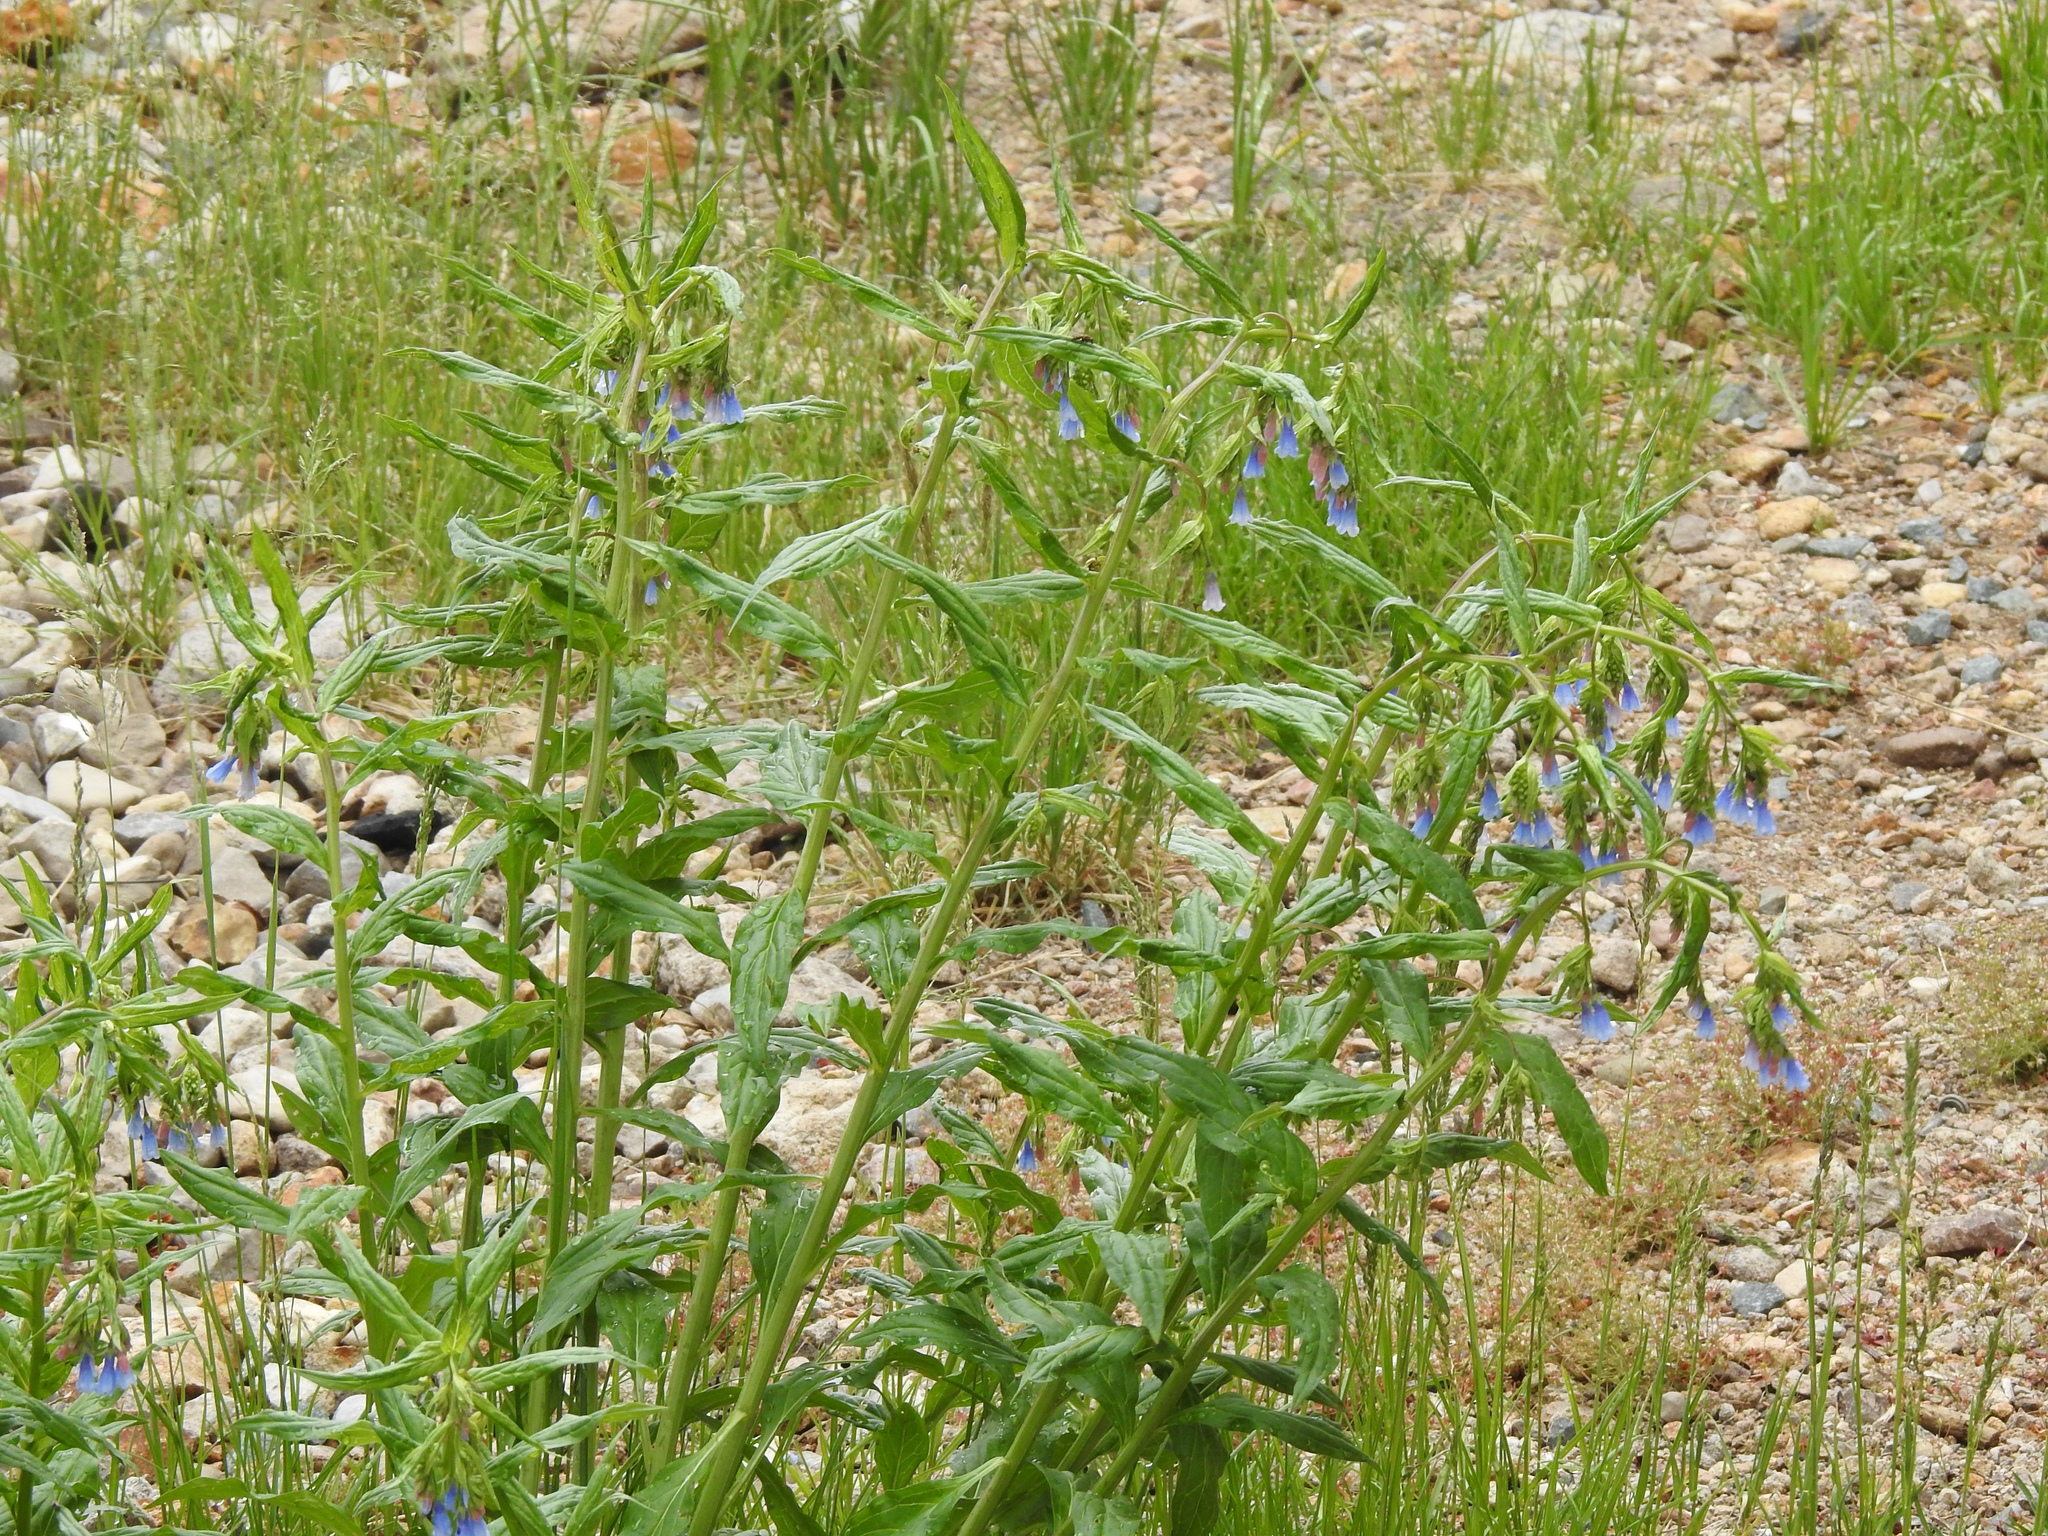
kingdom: Plantae
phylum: Tracheophyta
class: Magnoliopsida
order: Boraginales
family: Boraginaceae
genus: Mertensia
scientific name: Mertensia franciscana
